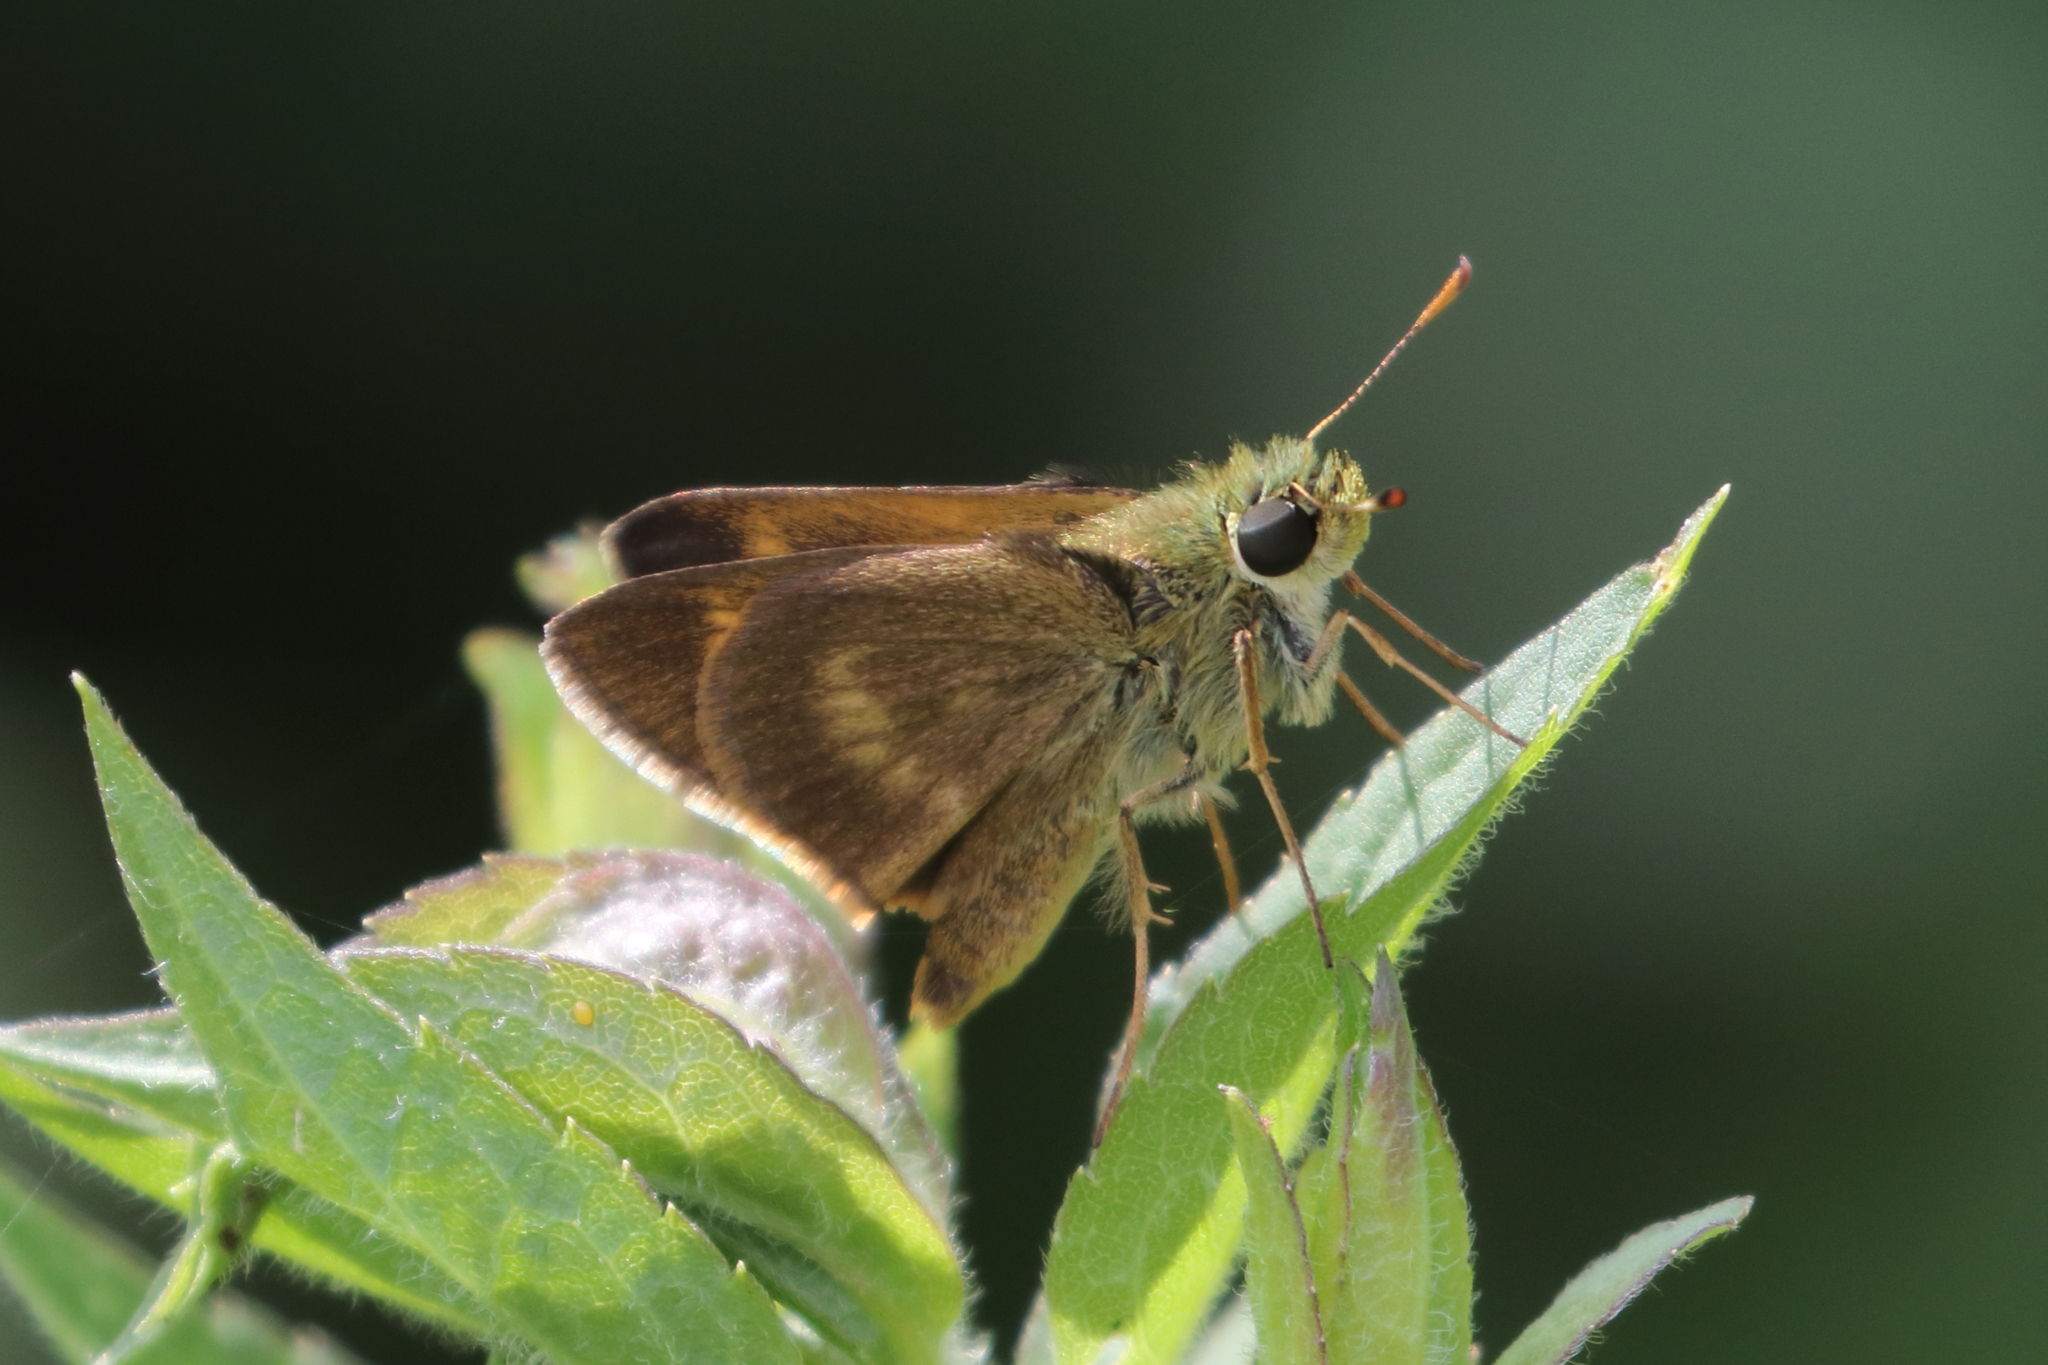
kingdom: Animalia
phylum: Arthropoda
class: Insecta
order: Lepidoptera
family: Hesperiidae
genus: Polites
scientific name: Polites egeremet
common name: Northern broken-dash
